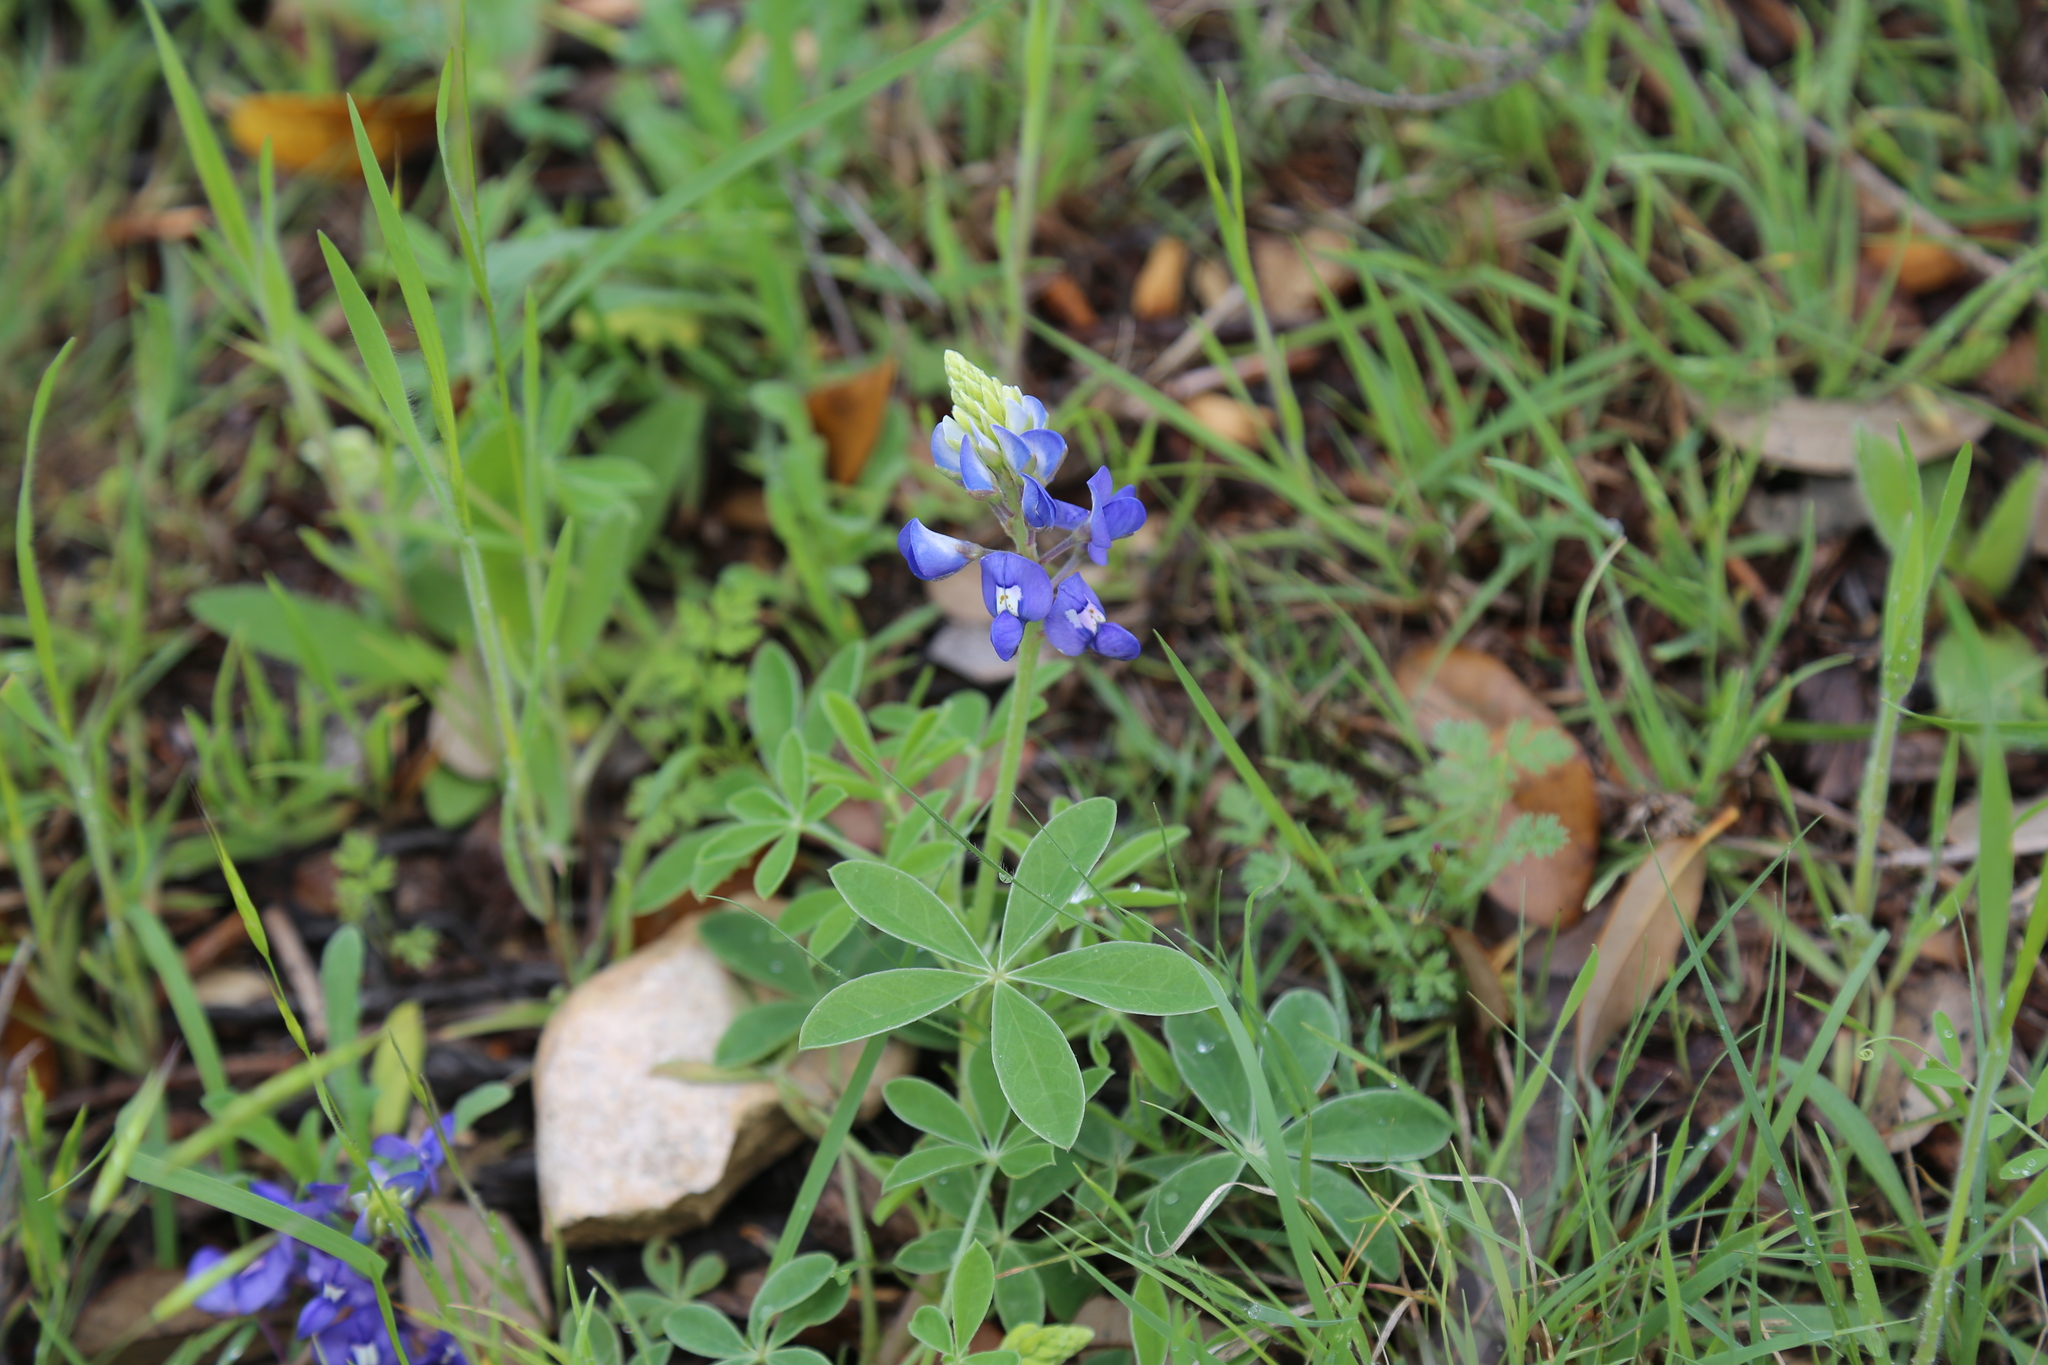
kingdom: Plantae
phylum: Tracheophyta
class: Magnoliopsida
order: Fabales
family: Fabaceae
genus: Lupinus
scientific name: Lupinus texensis
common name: Texas bluebonnet
